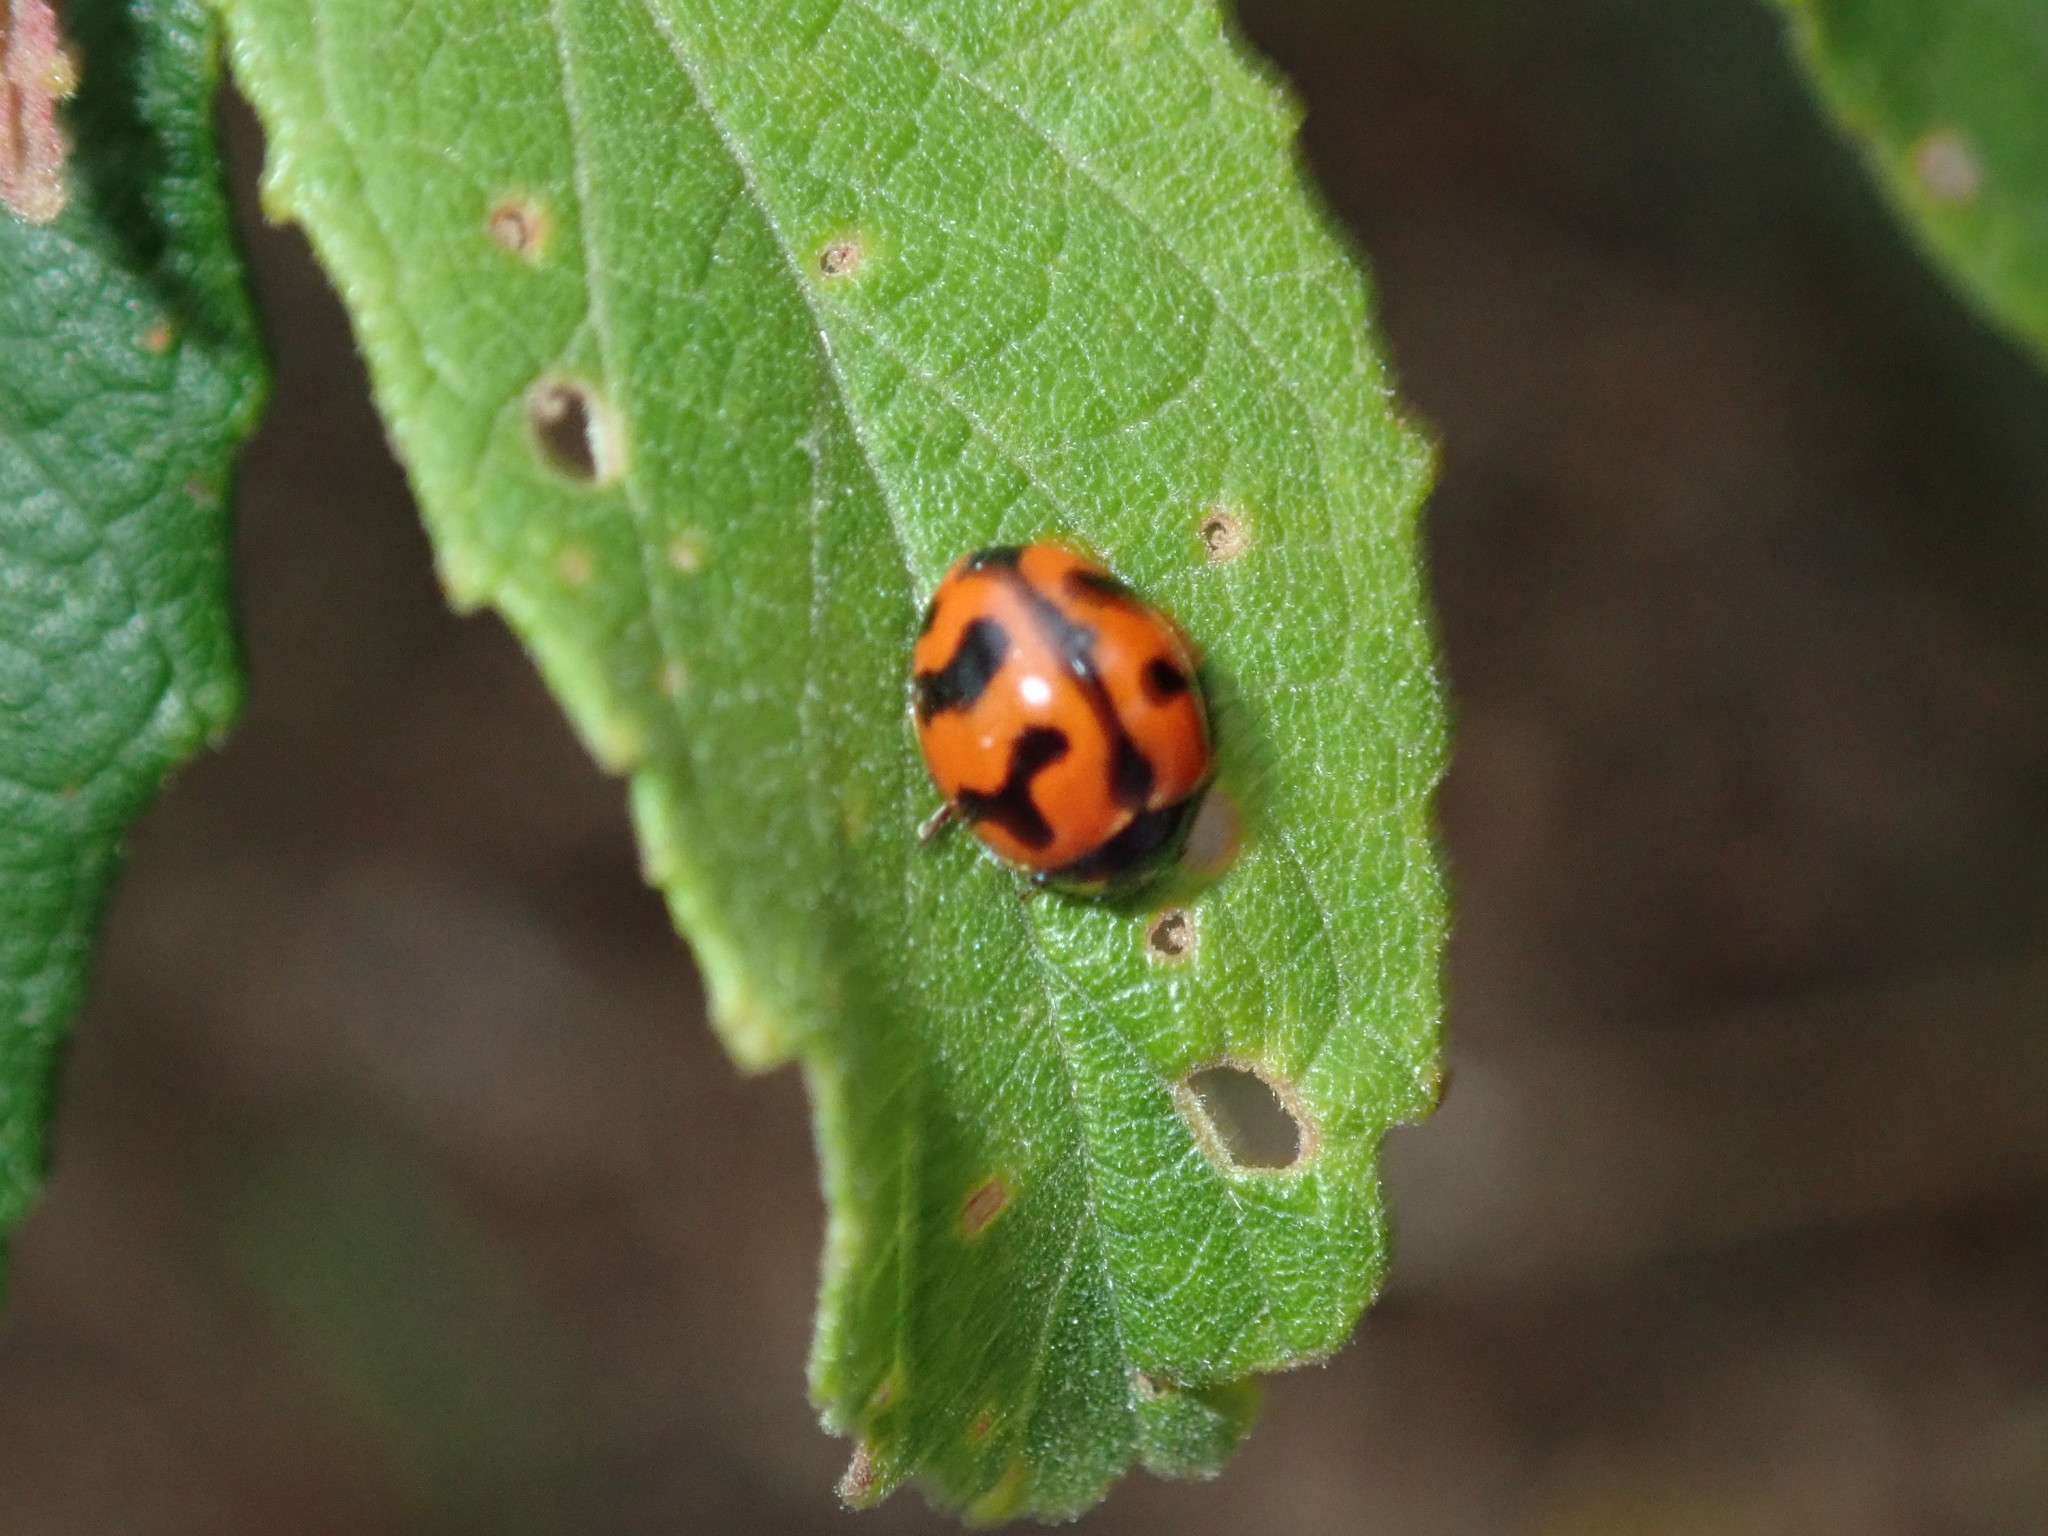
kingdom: Animalia
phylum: Arthropoda
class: Insecta
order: Coleoptera
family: Coccinellidae
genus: Coccinella
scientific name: Coccinella transversalis
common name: Transverse lady beetle
